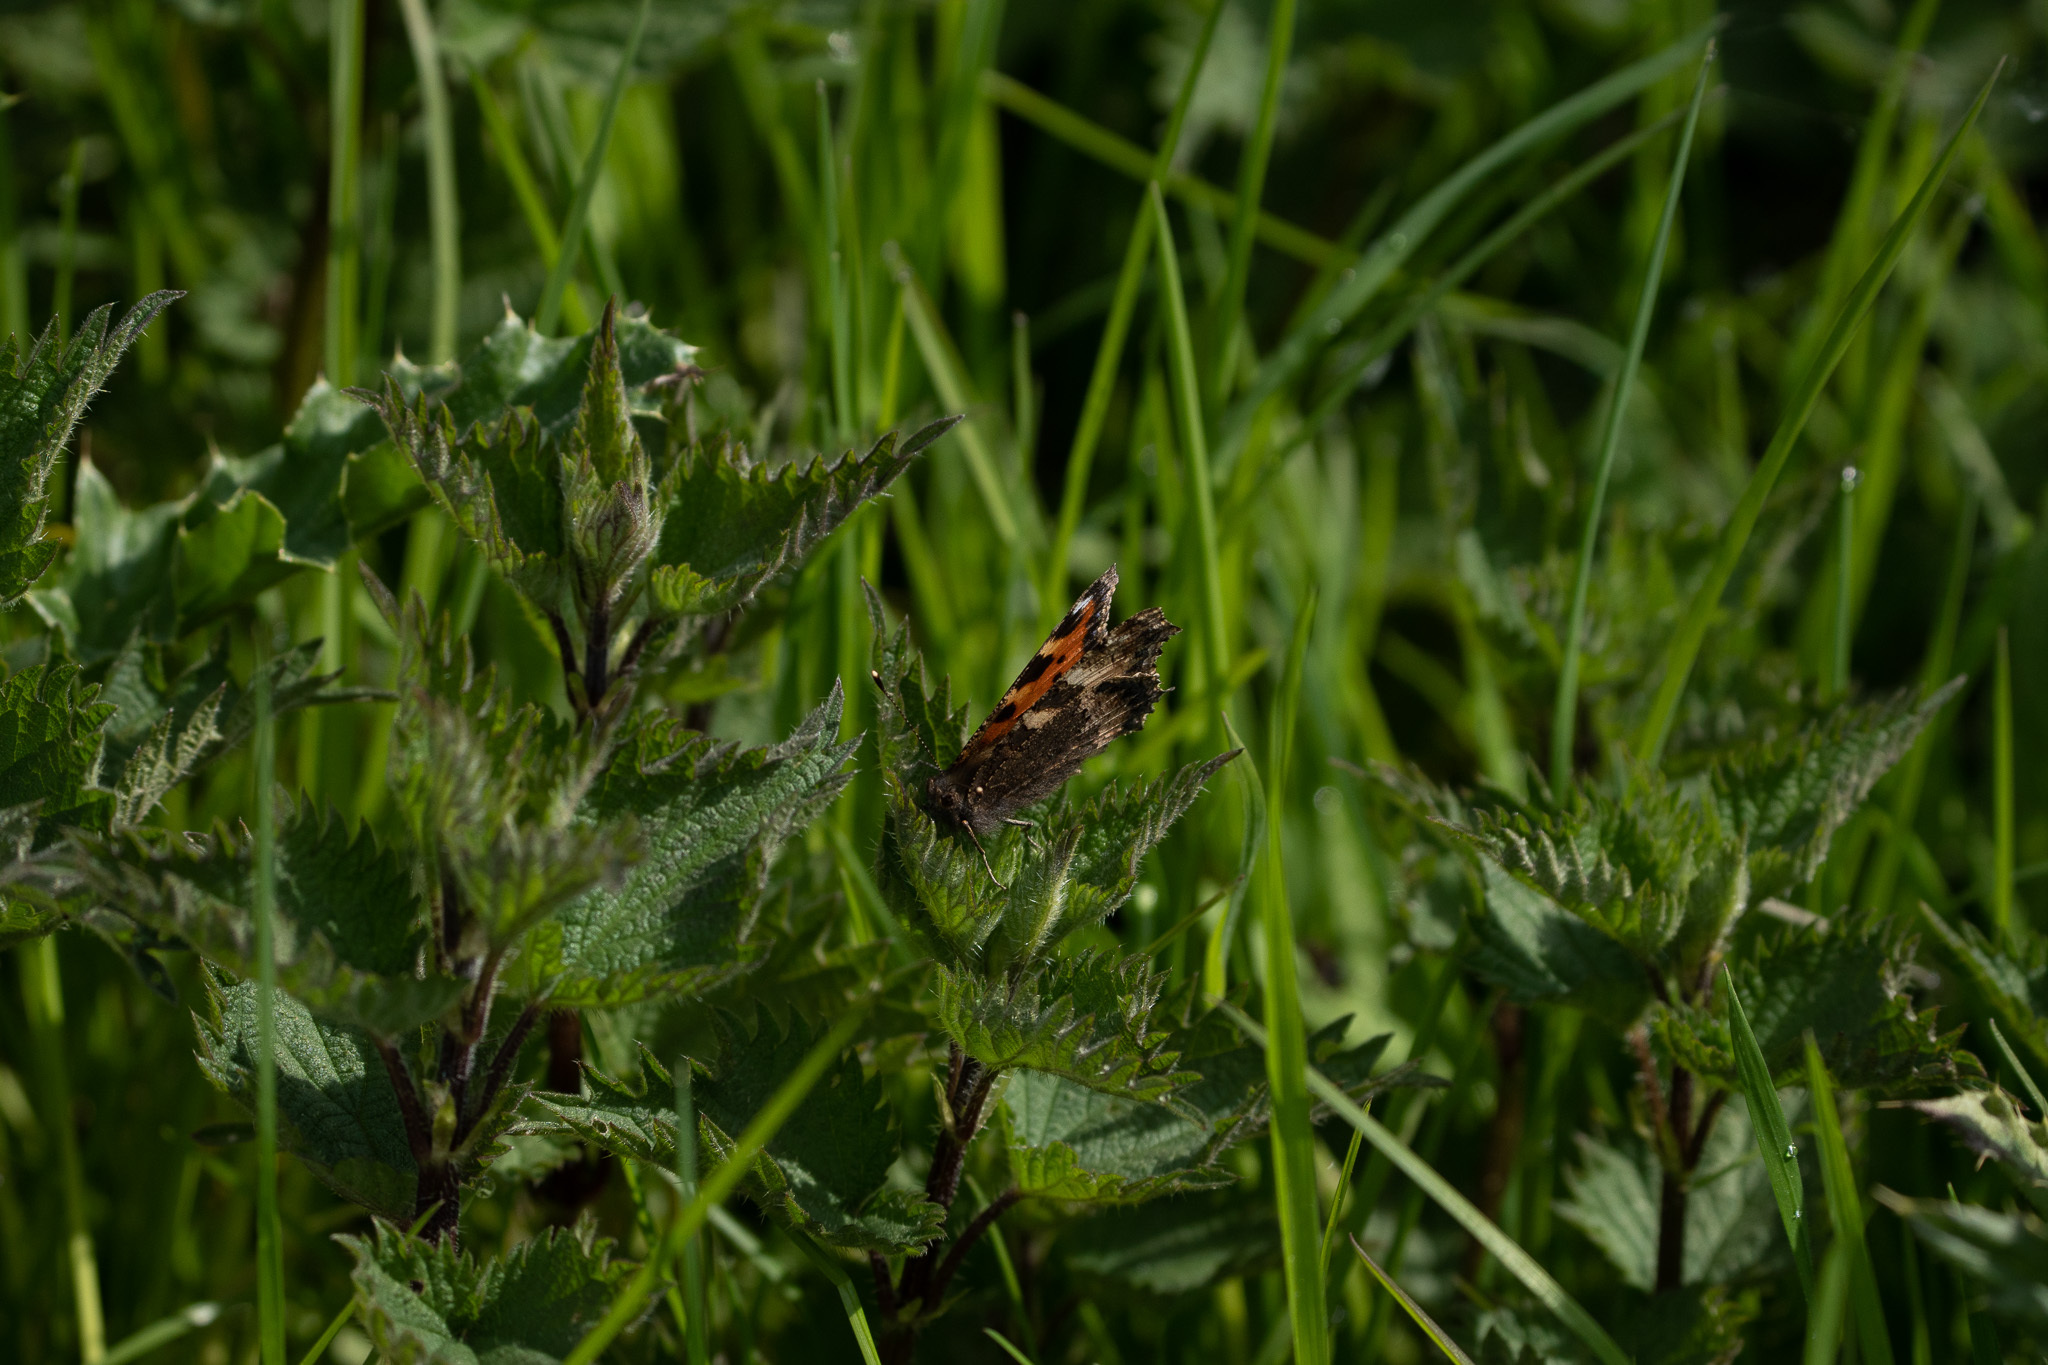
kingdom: Animalia
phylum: Arthropoda
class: Insecta
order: Lepidoptera
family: Nymphalidae
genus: Aglais
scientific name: Aglais urticae
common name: Small tortoiseshell
